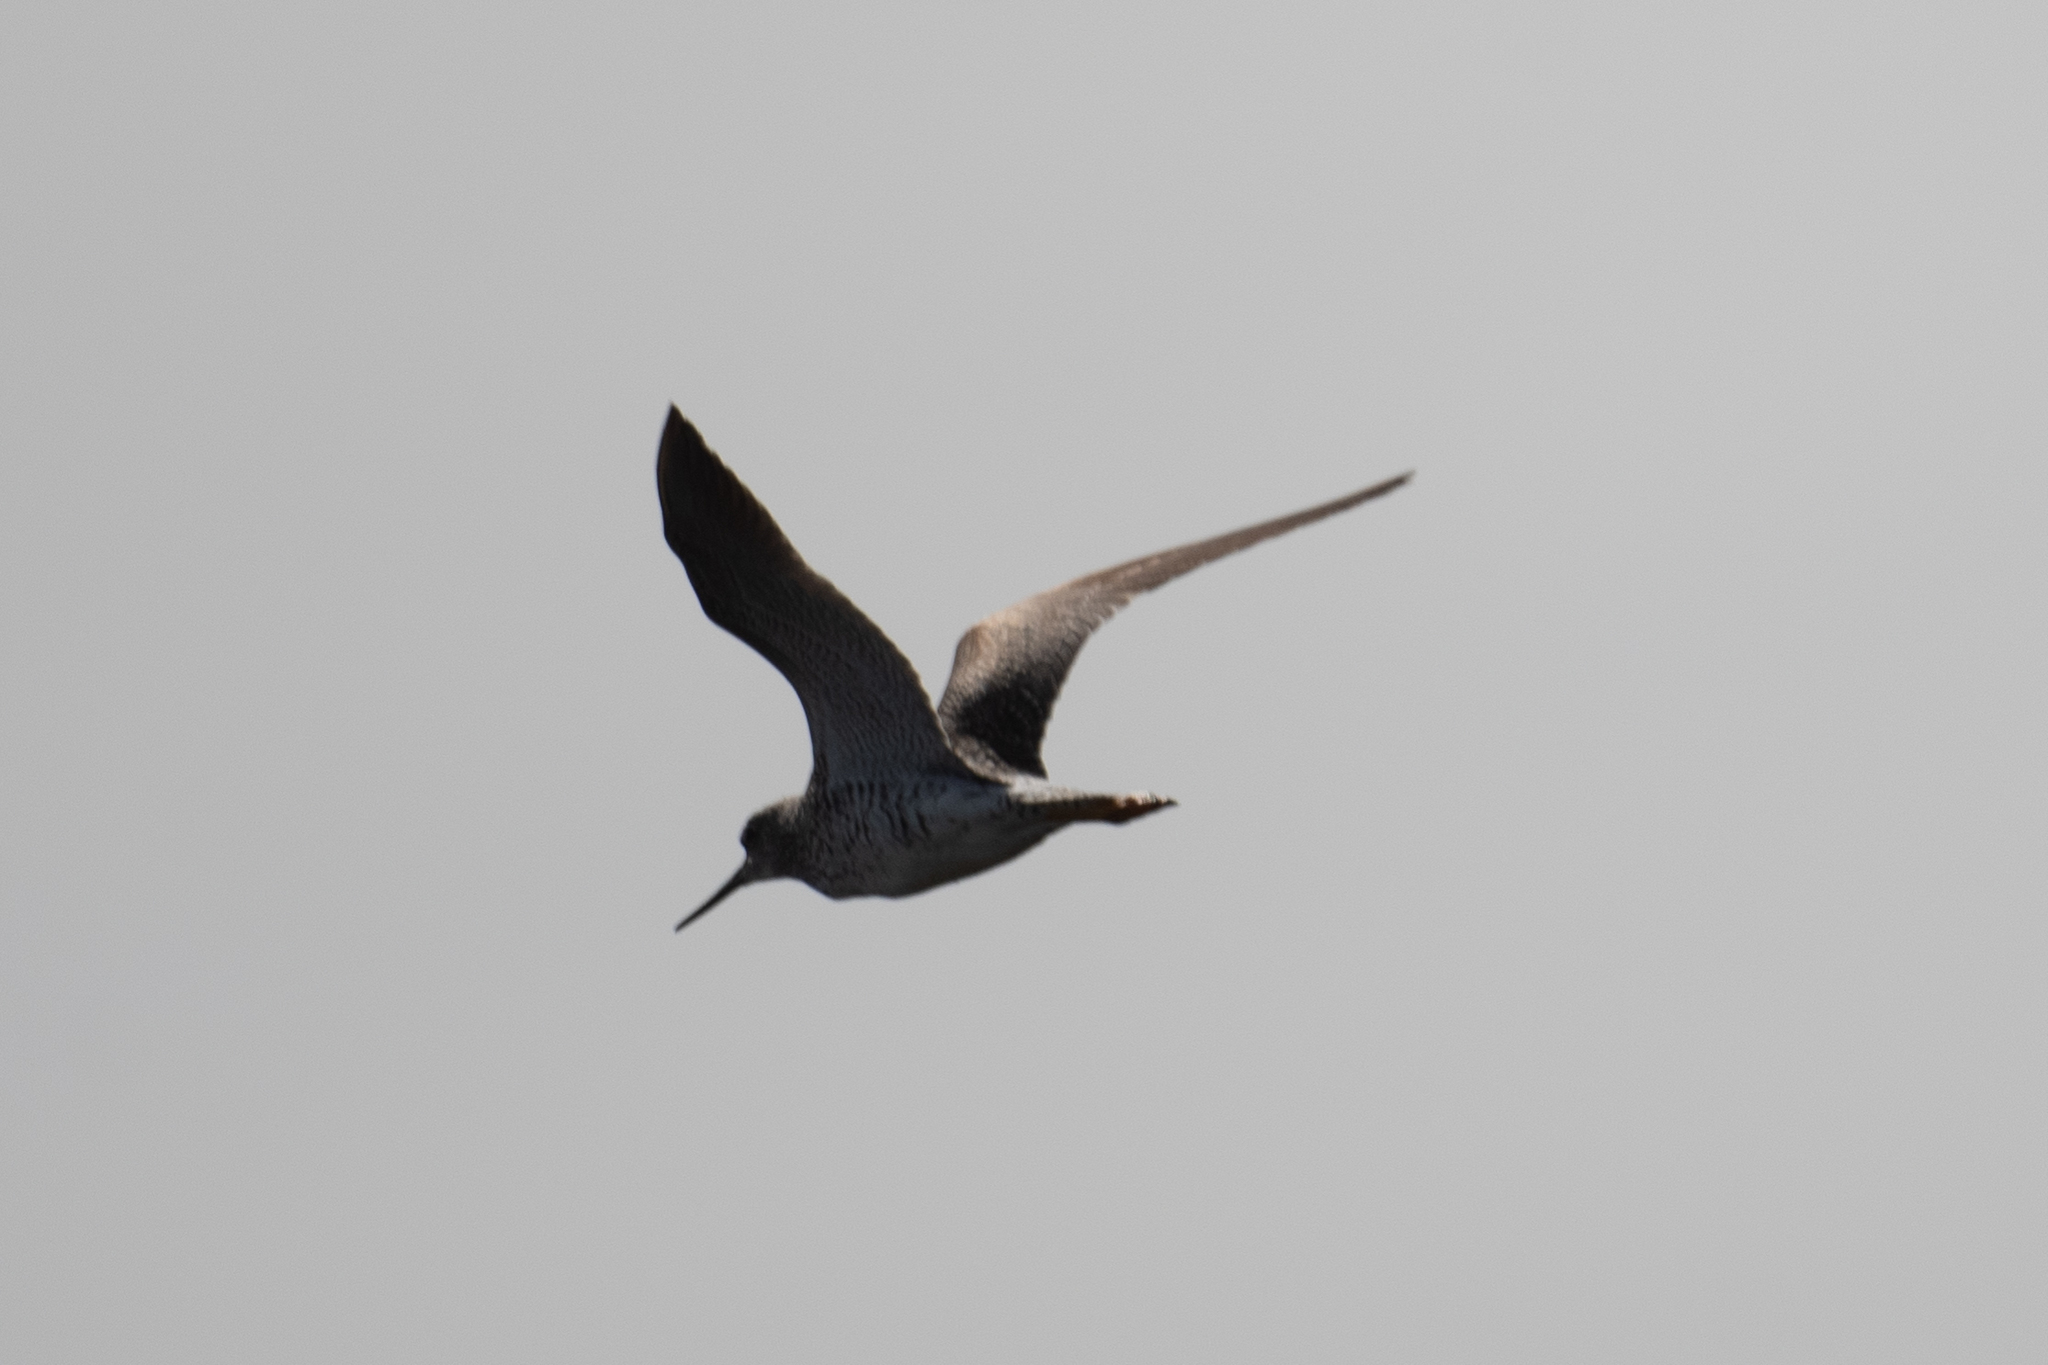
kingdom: Animalia
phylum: Chordata
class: Aves
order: Charadriiformes
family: Scolopacidae
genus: Tringa
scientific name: Tringa melanoleuca
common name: Greater yellowlegs
